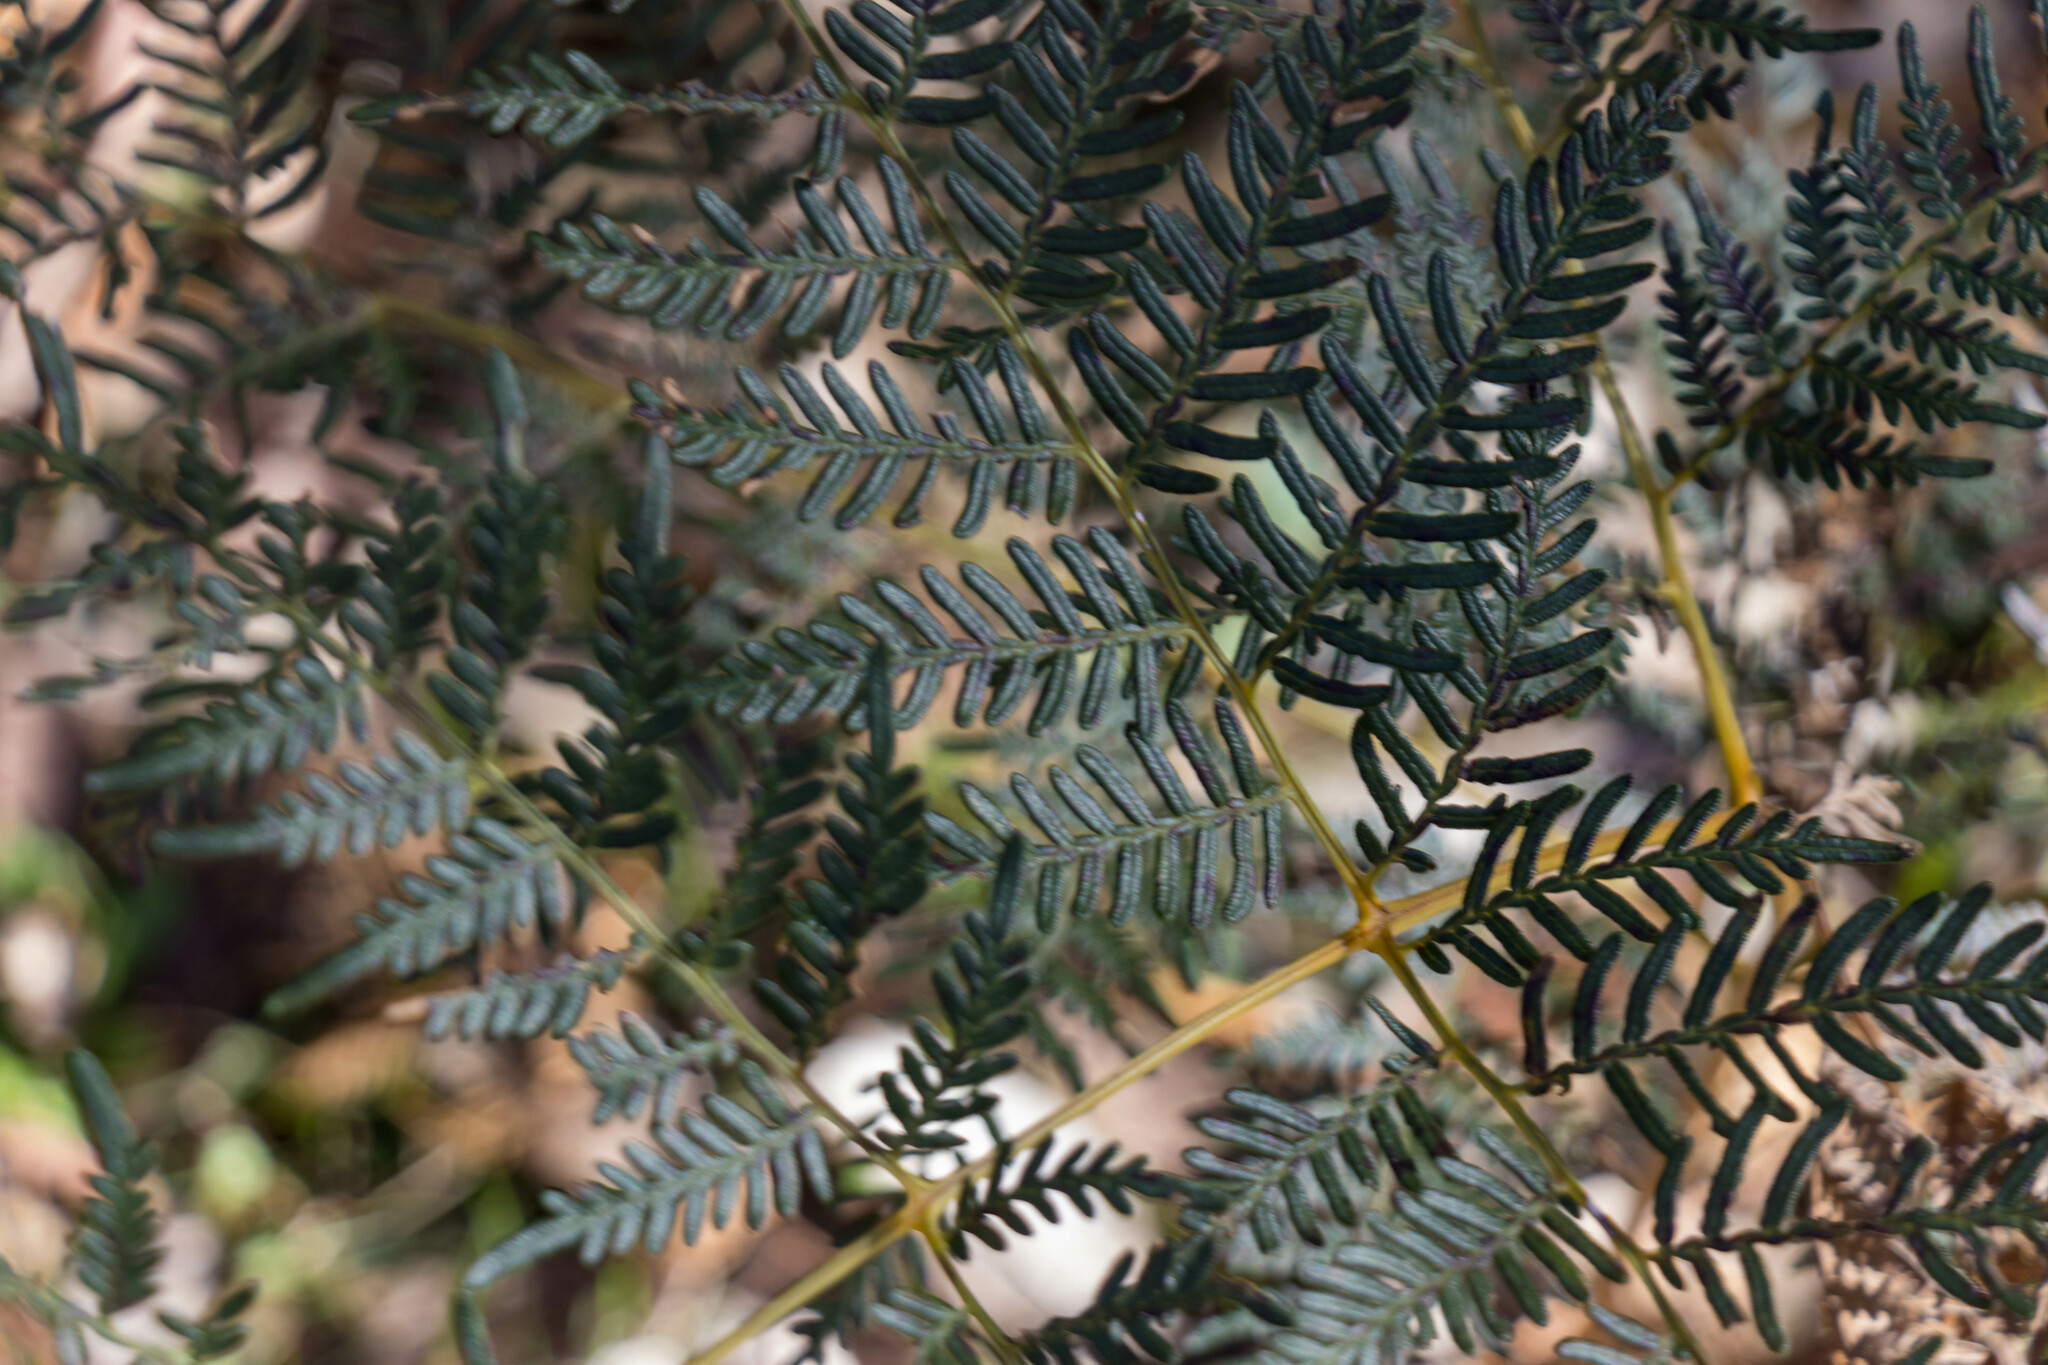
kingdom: Plantae
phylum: Tracheophyta
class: Polypodiopsida
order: Polypodiales
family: Dennstaedtiaceae
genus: Pteridium
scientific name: Pteridium esculentum
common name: Bracken fern
